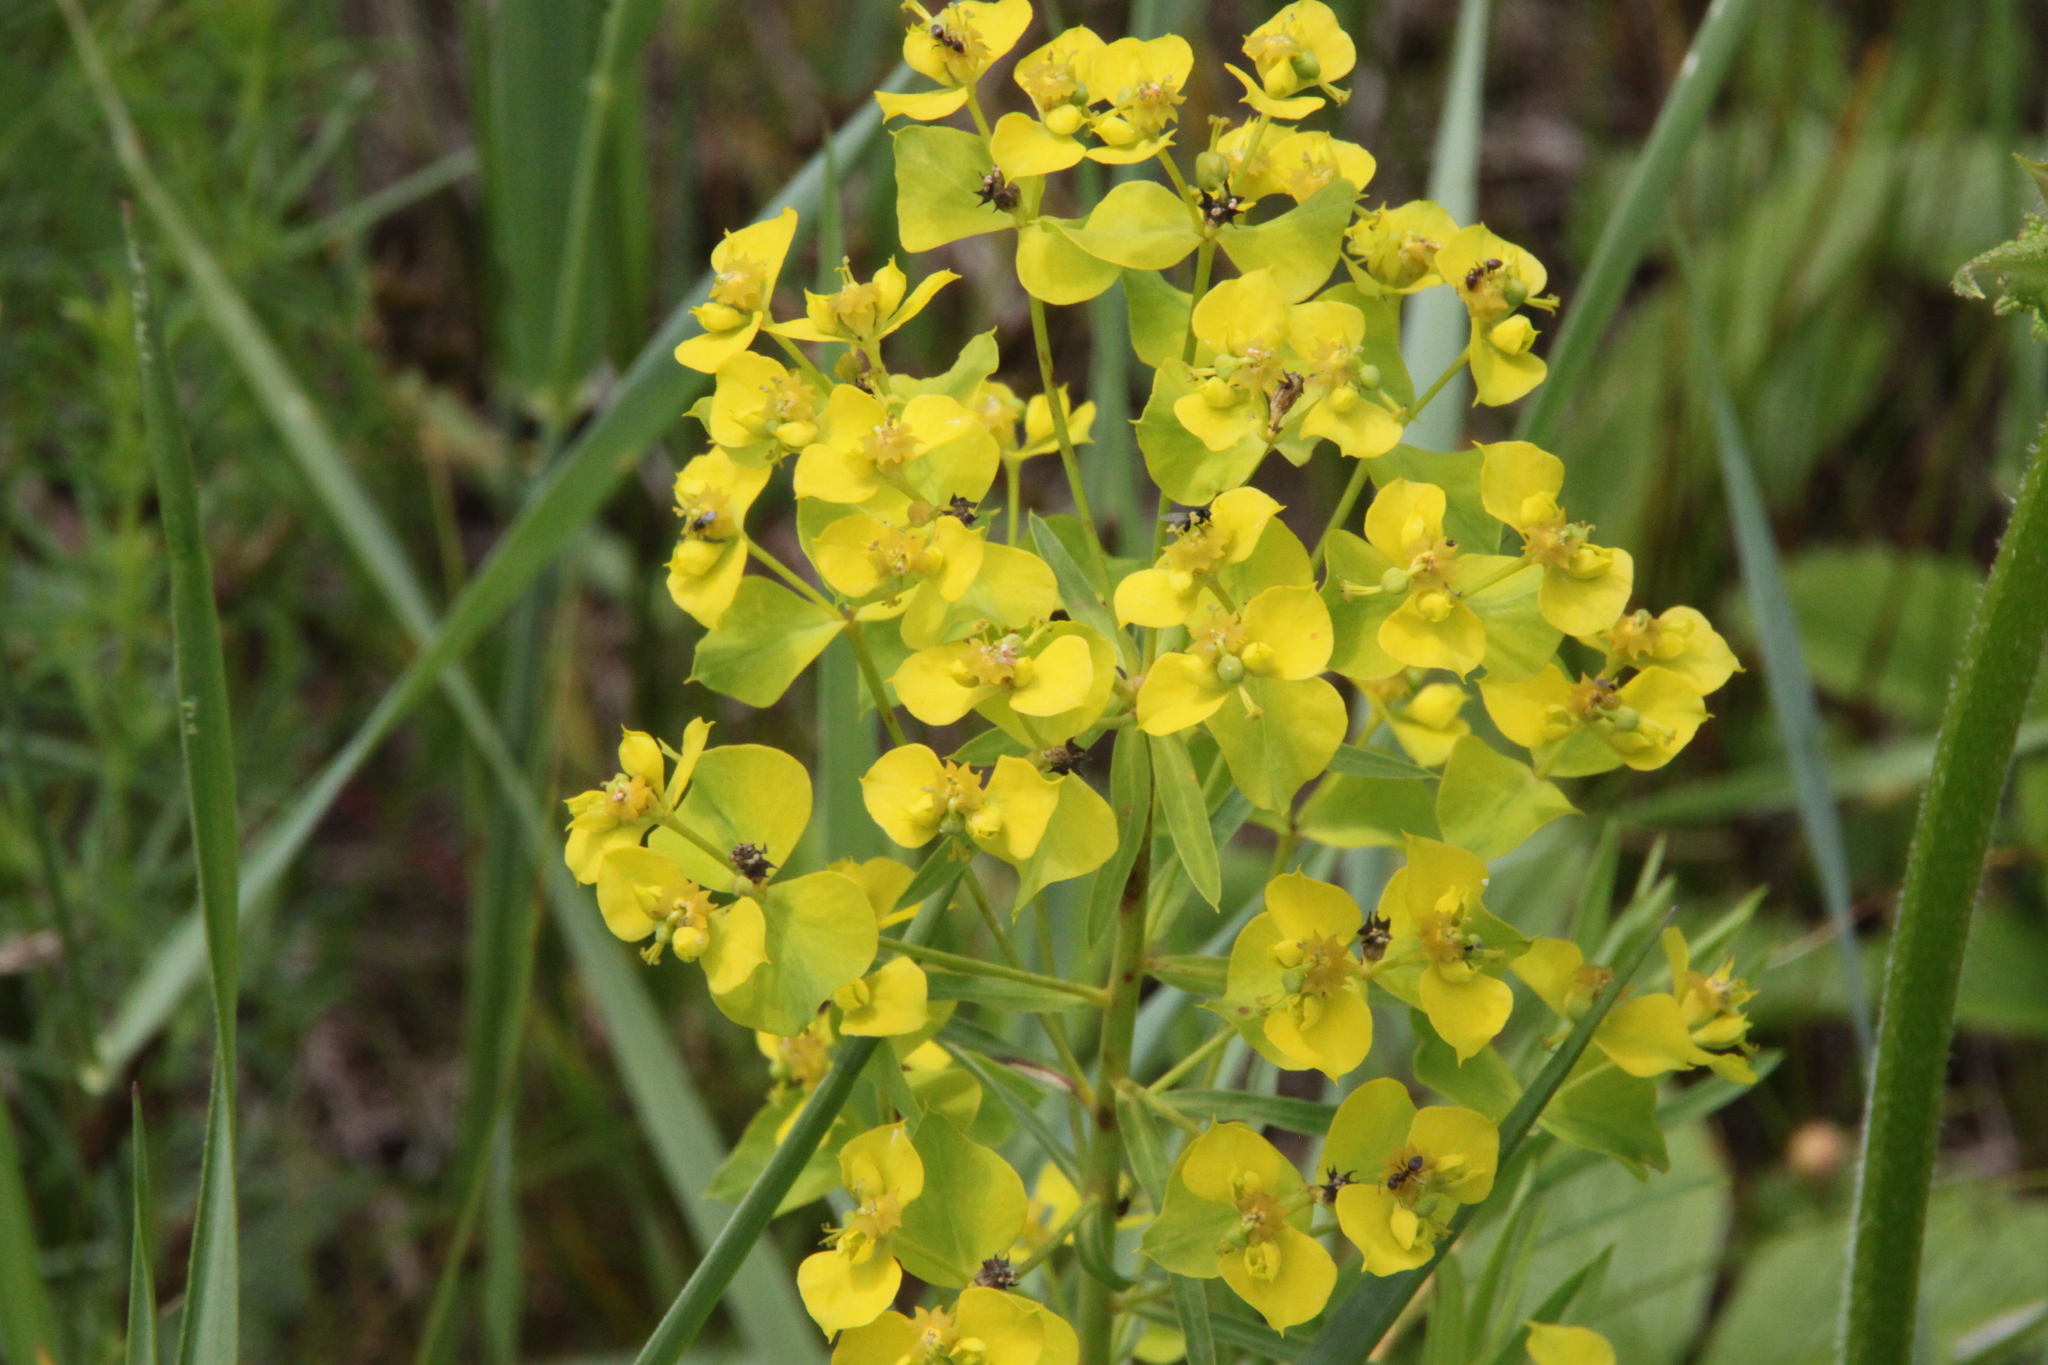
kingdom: Plantae
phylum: Tracheophyta
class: Magnoliopsida
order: Malpighiales
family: Euphorbiaceae
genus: Euphorbia
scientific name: Euphorbia virgata
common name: Leafy spurge
